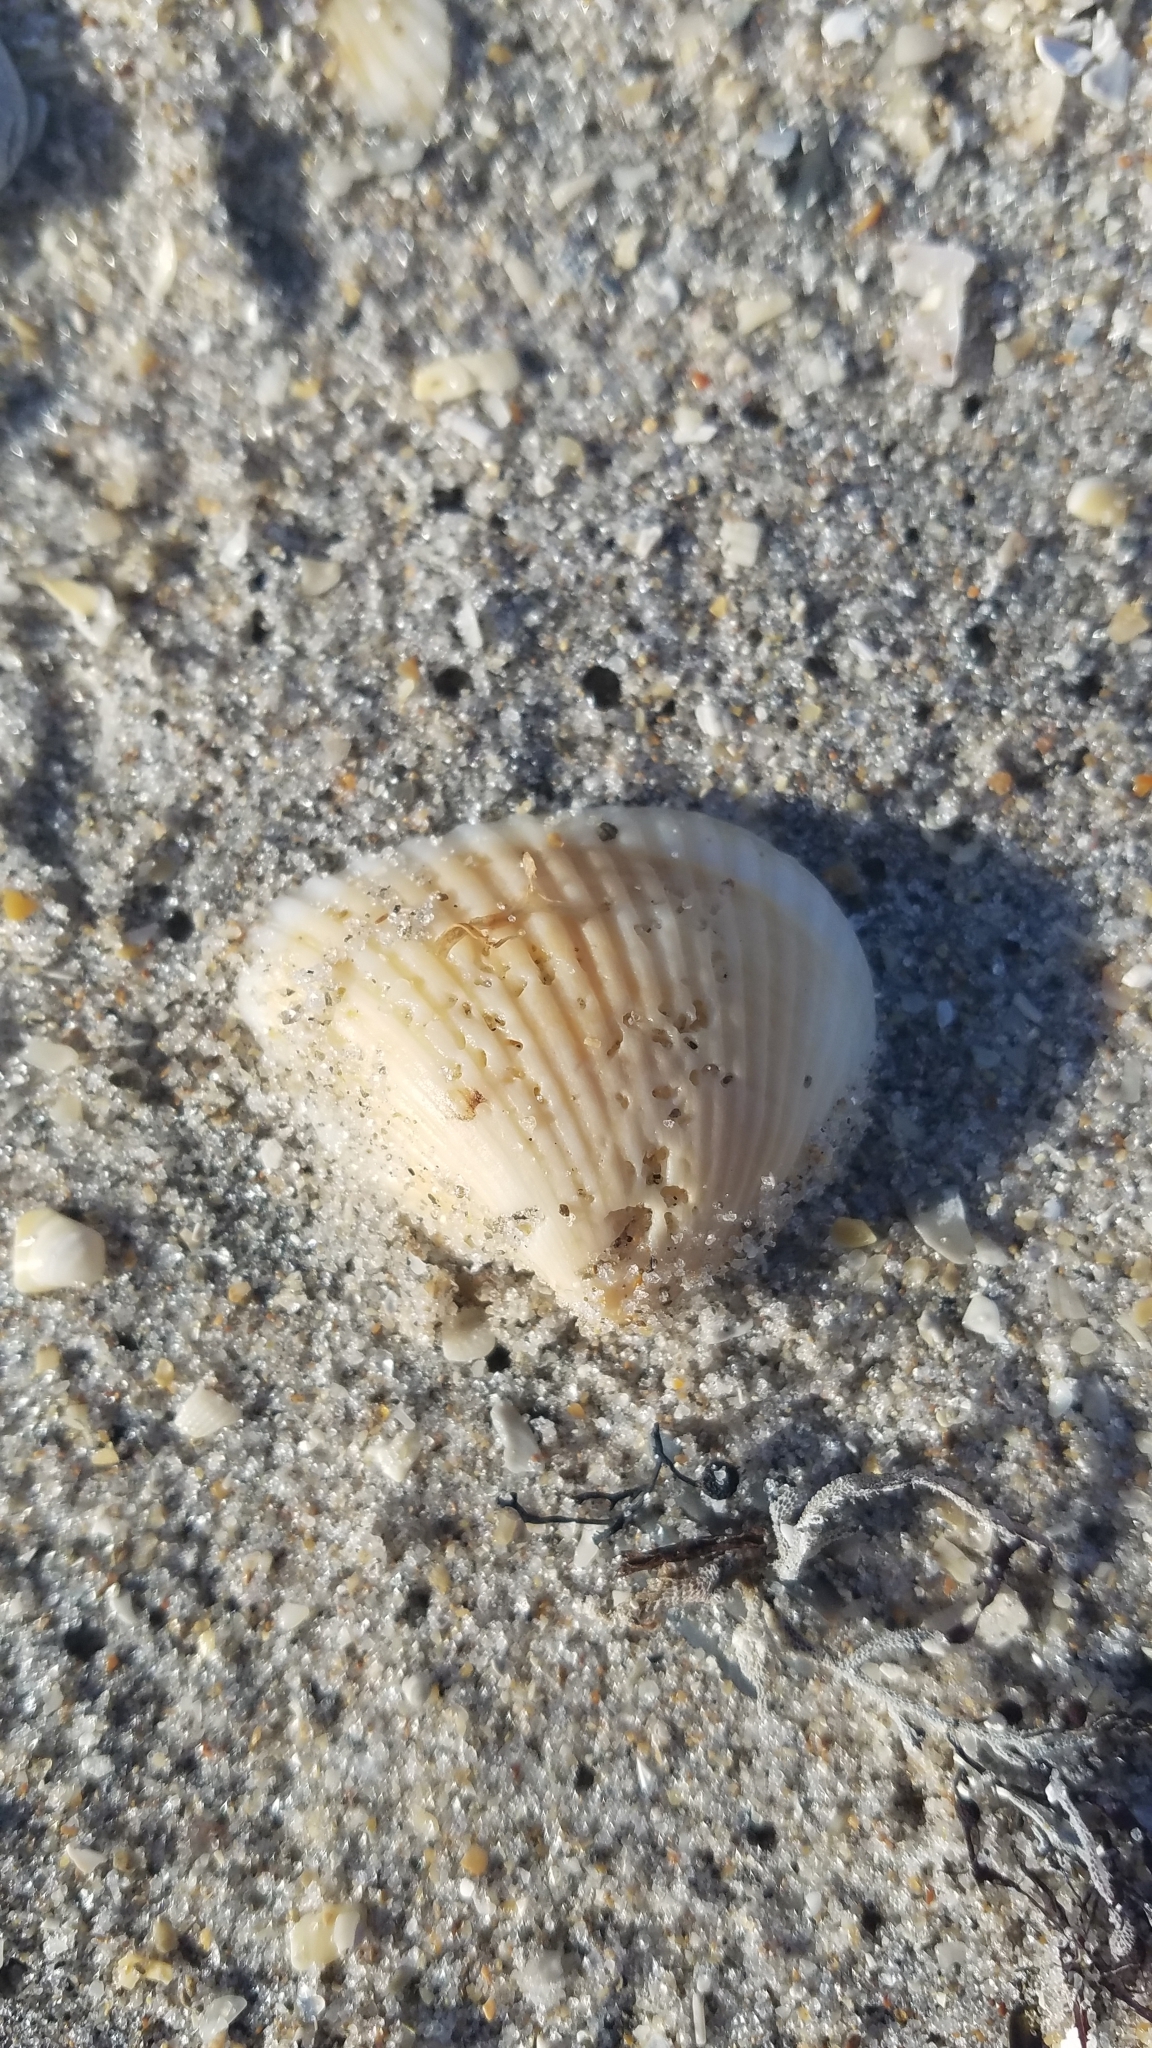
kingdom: Animalia
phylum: Mollusca
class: Bivalvia
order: Arcida
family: Noetiidae
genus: Noetia
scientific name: Noetia ponderosa
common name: Ponderous ark
